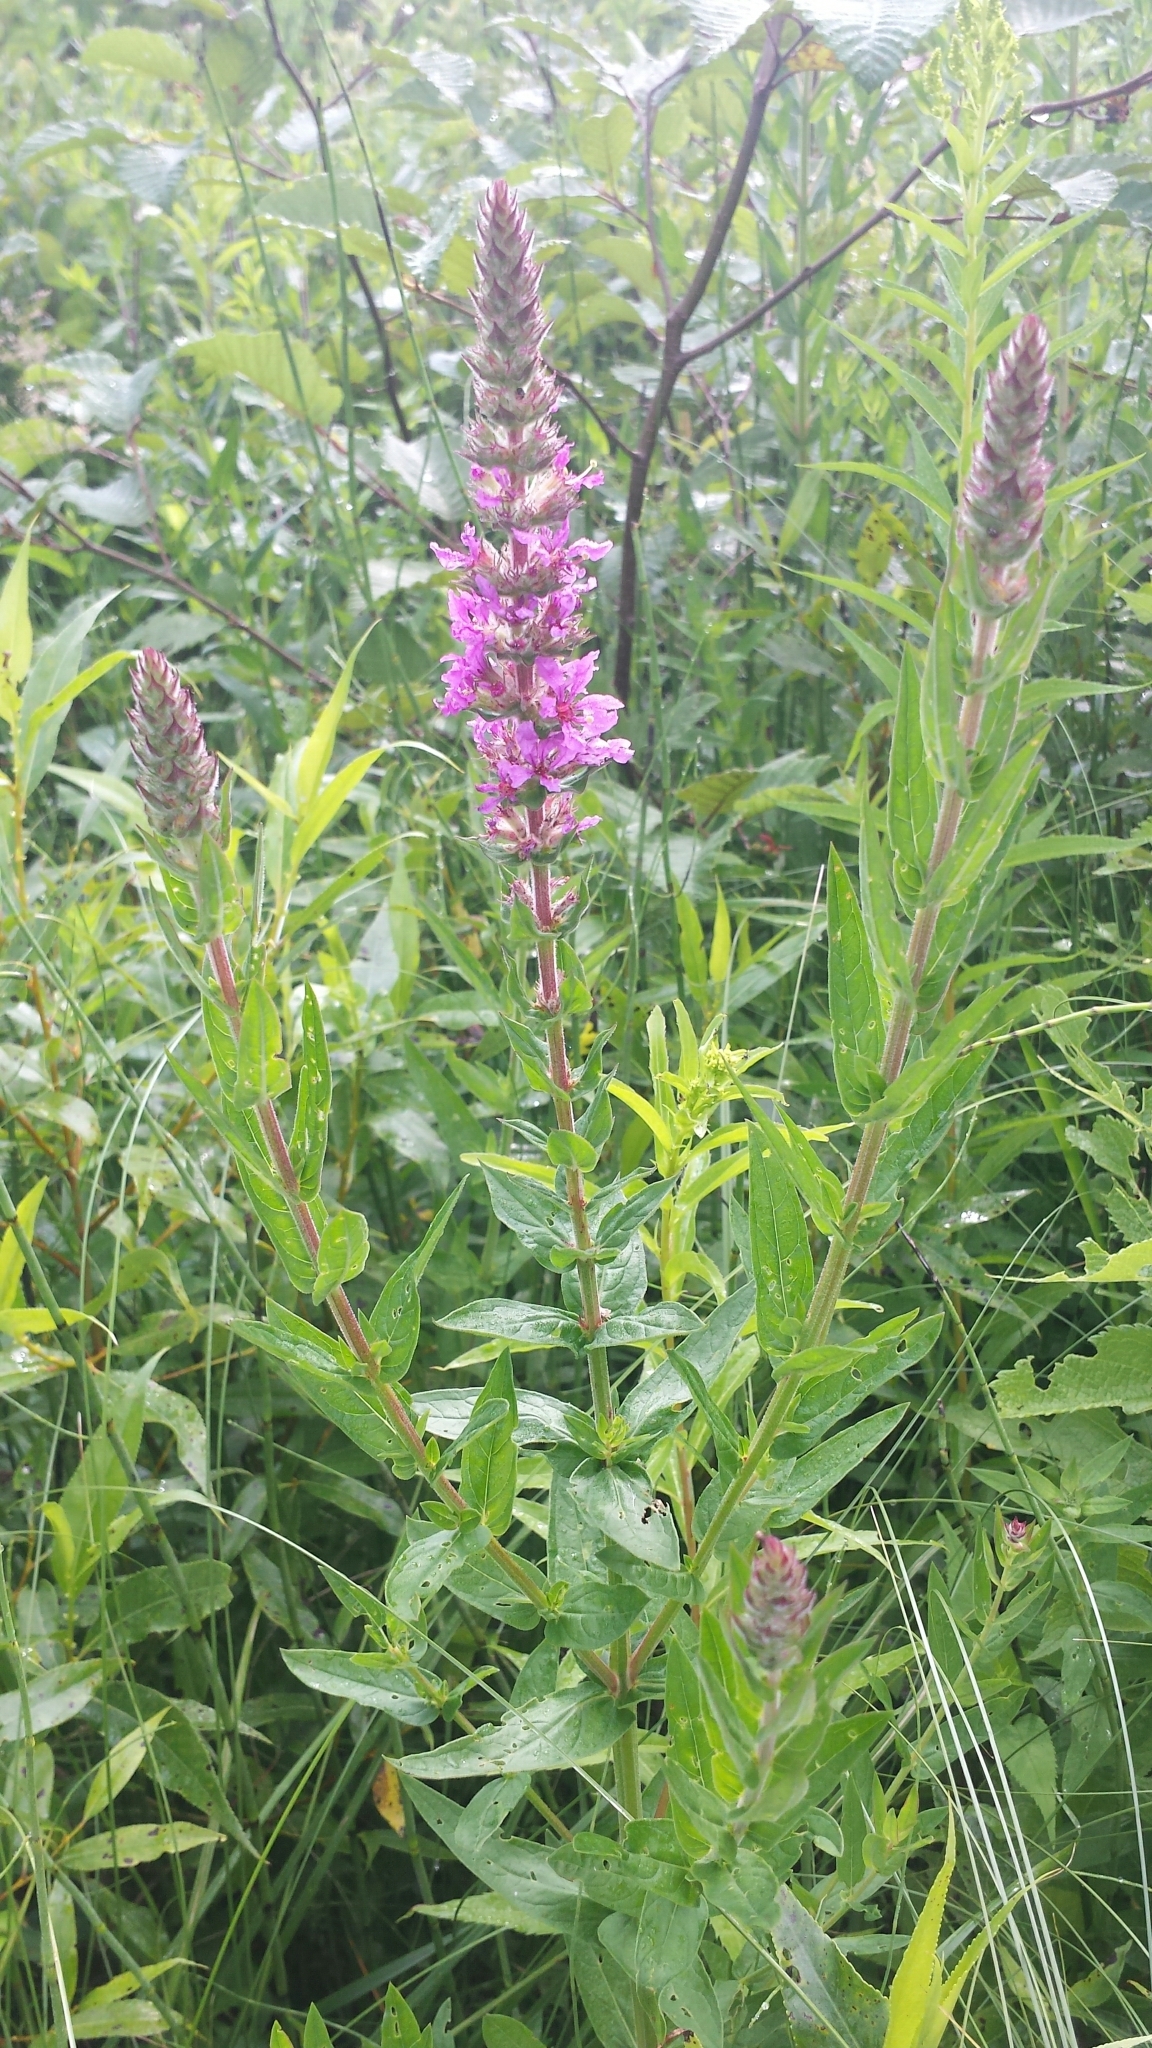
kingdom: Plantae
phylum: Tracheophyta
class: Magnoliopsida
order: Myrtales
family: Lythraceae
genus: Lythrum
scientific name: Lythrum salicaria
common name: Purple loosestrife
